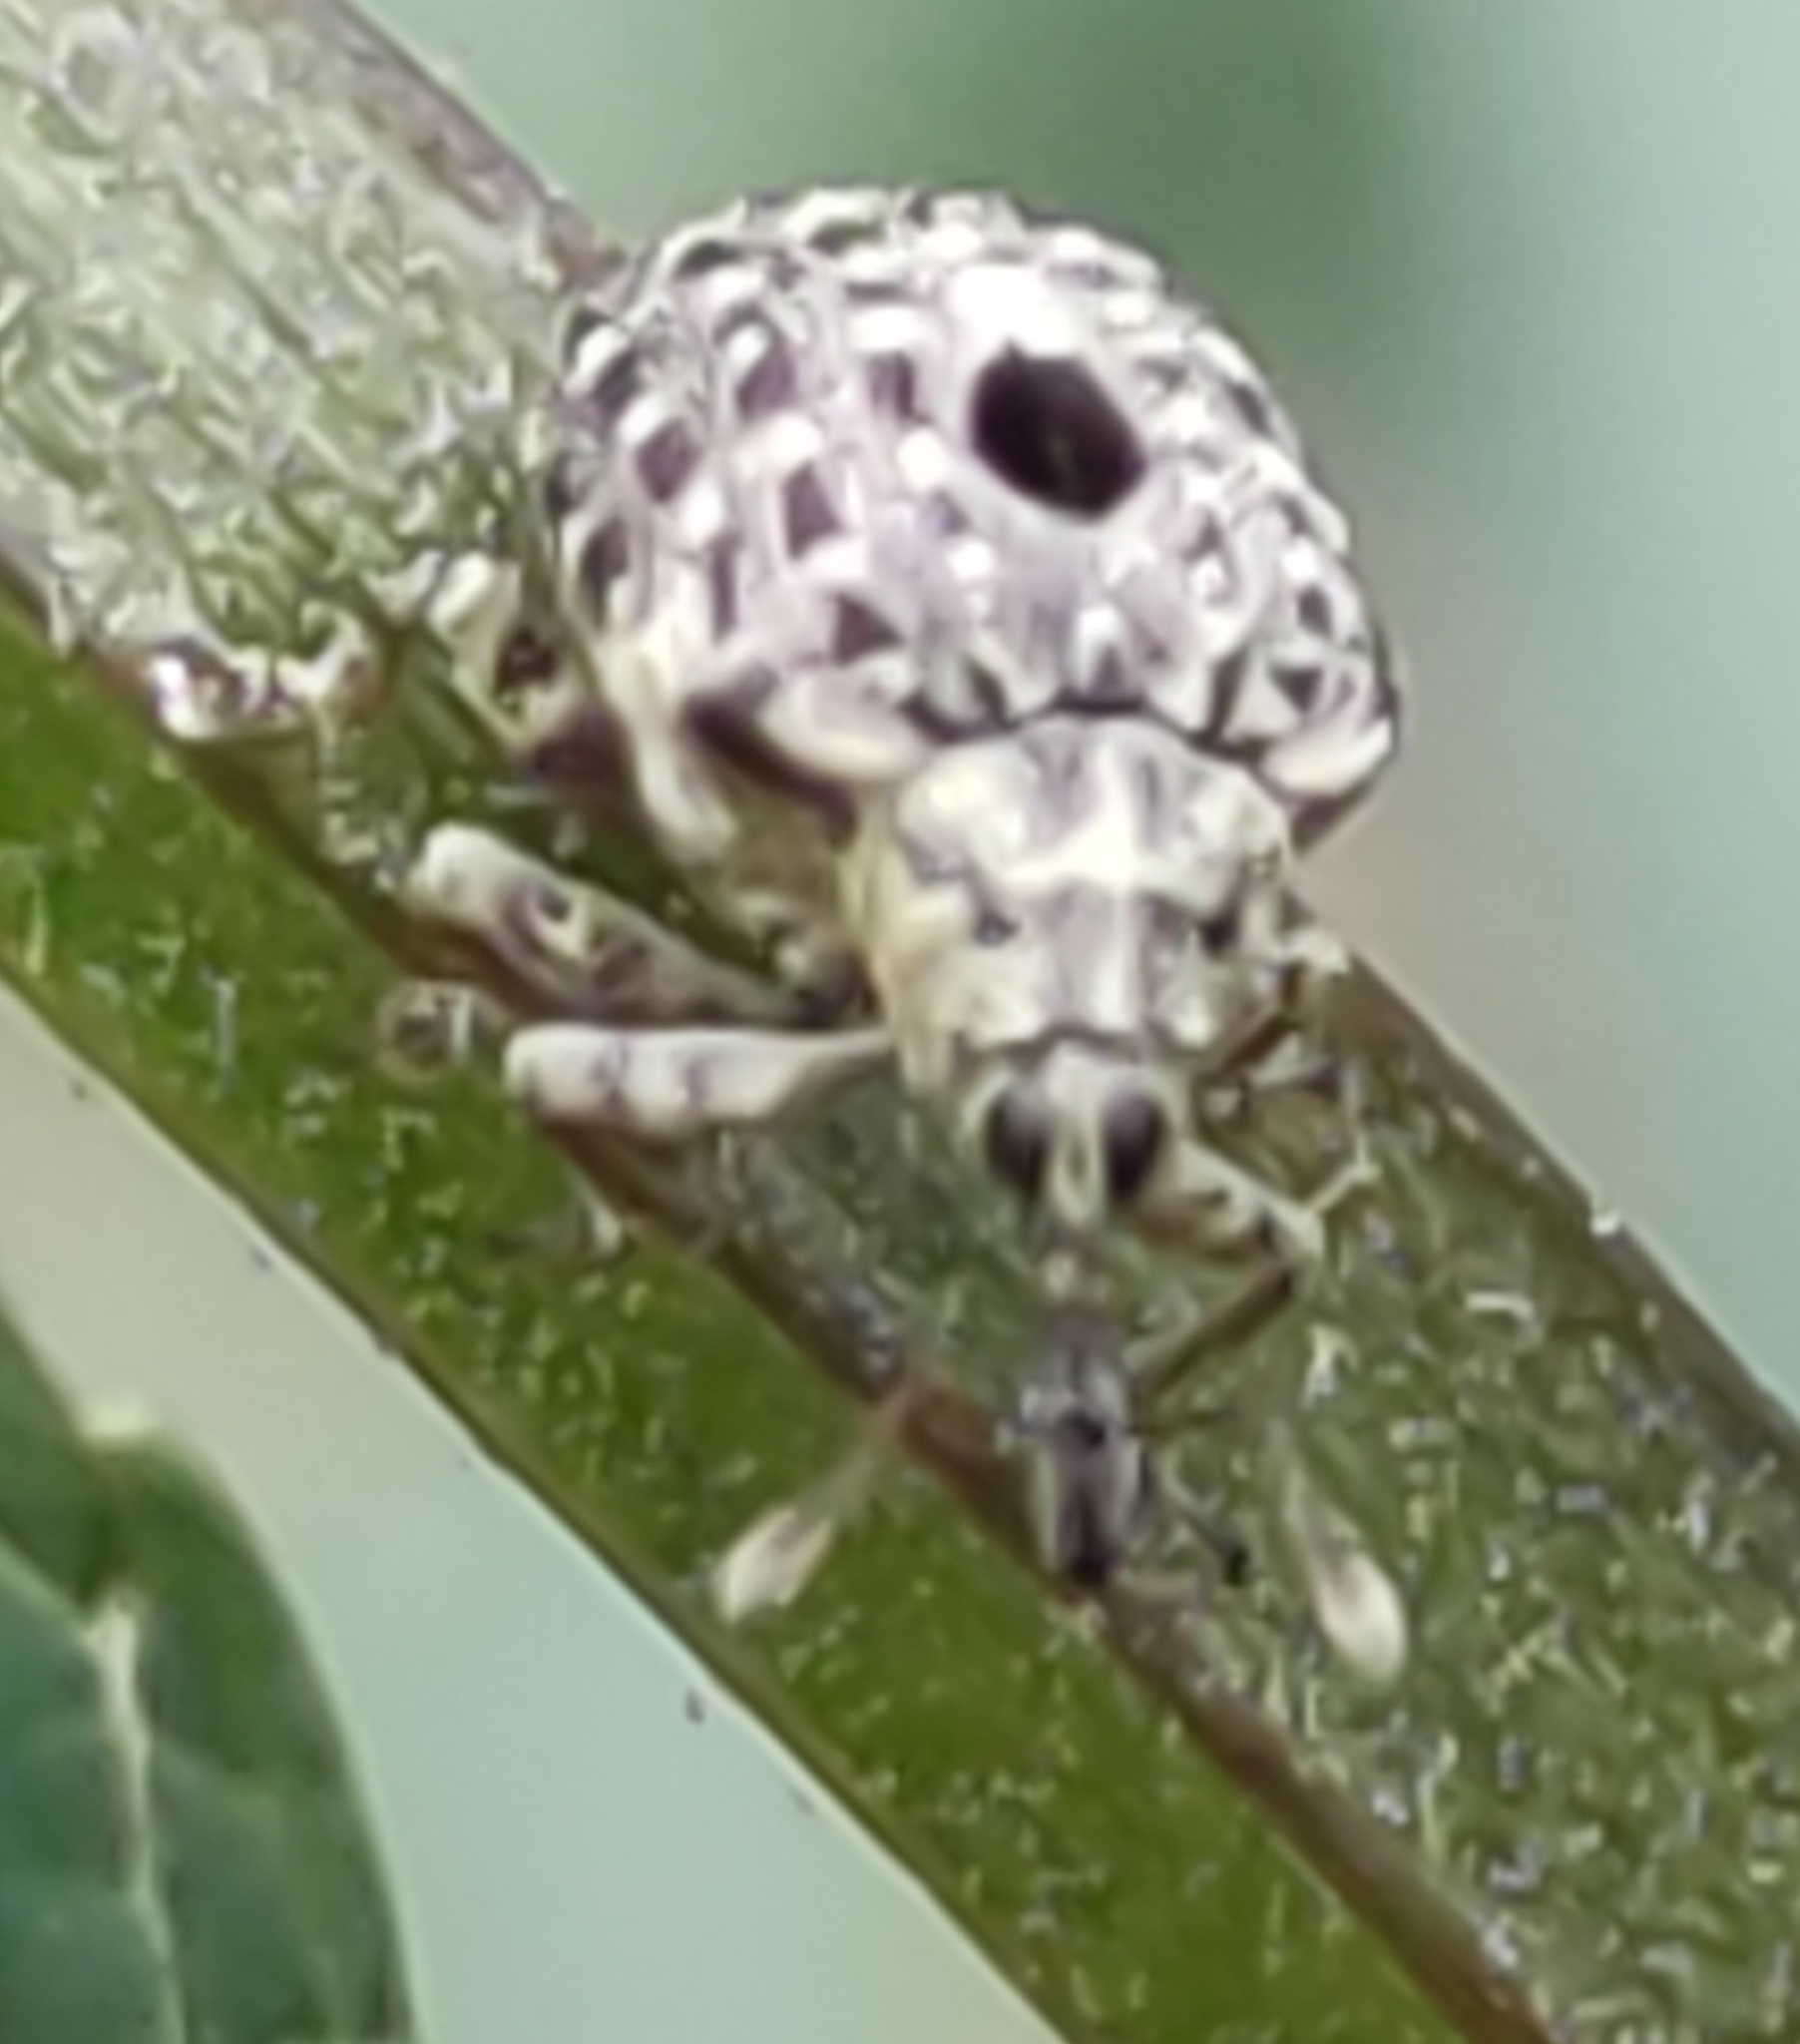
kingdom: Animalia
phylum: Arthropoda
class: Insecta
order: Coleoptera
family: Curculionidae
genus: Cionus
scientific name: Cionus hortulanus
